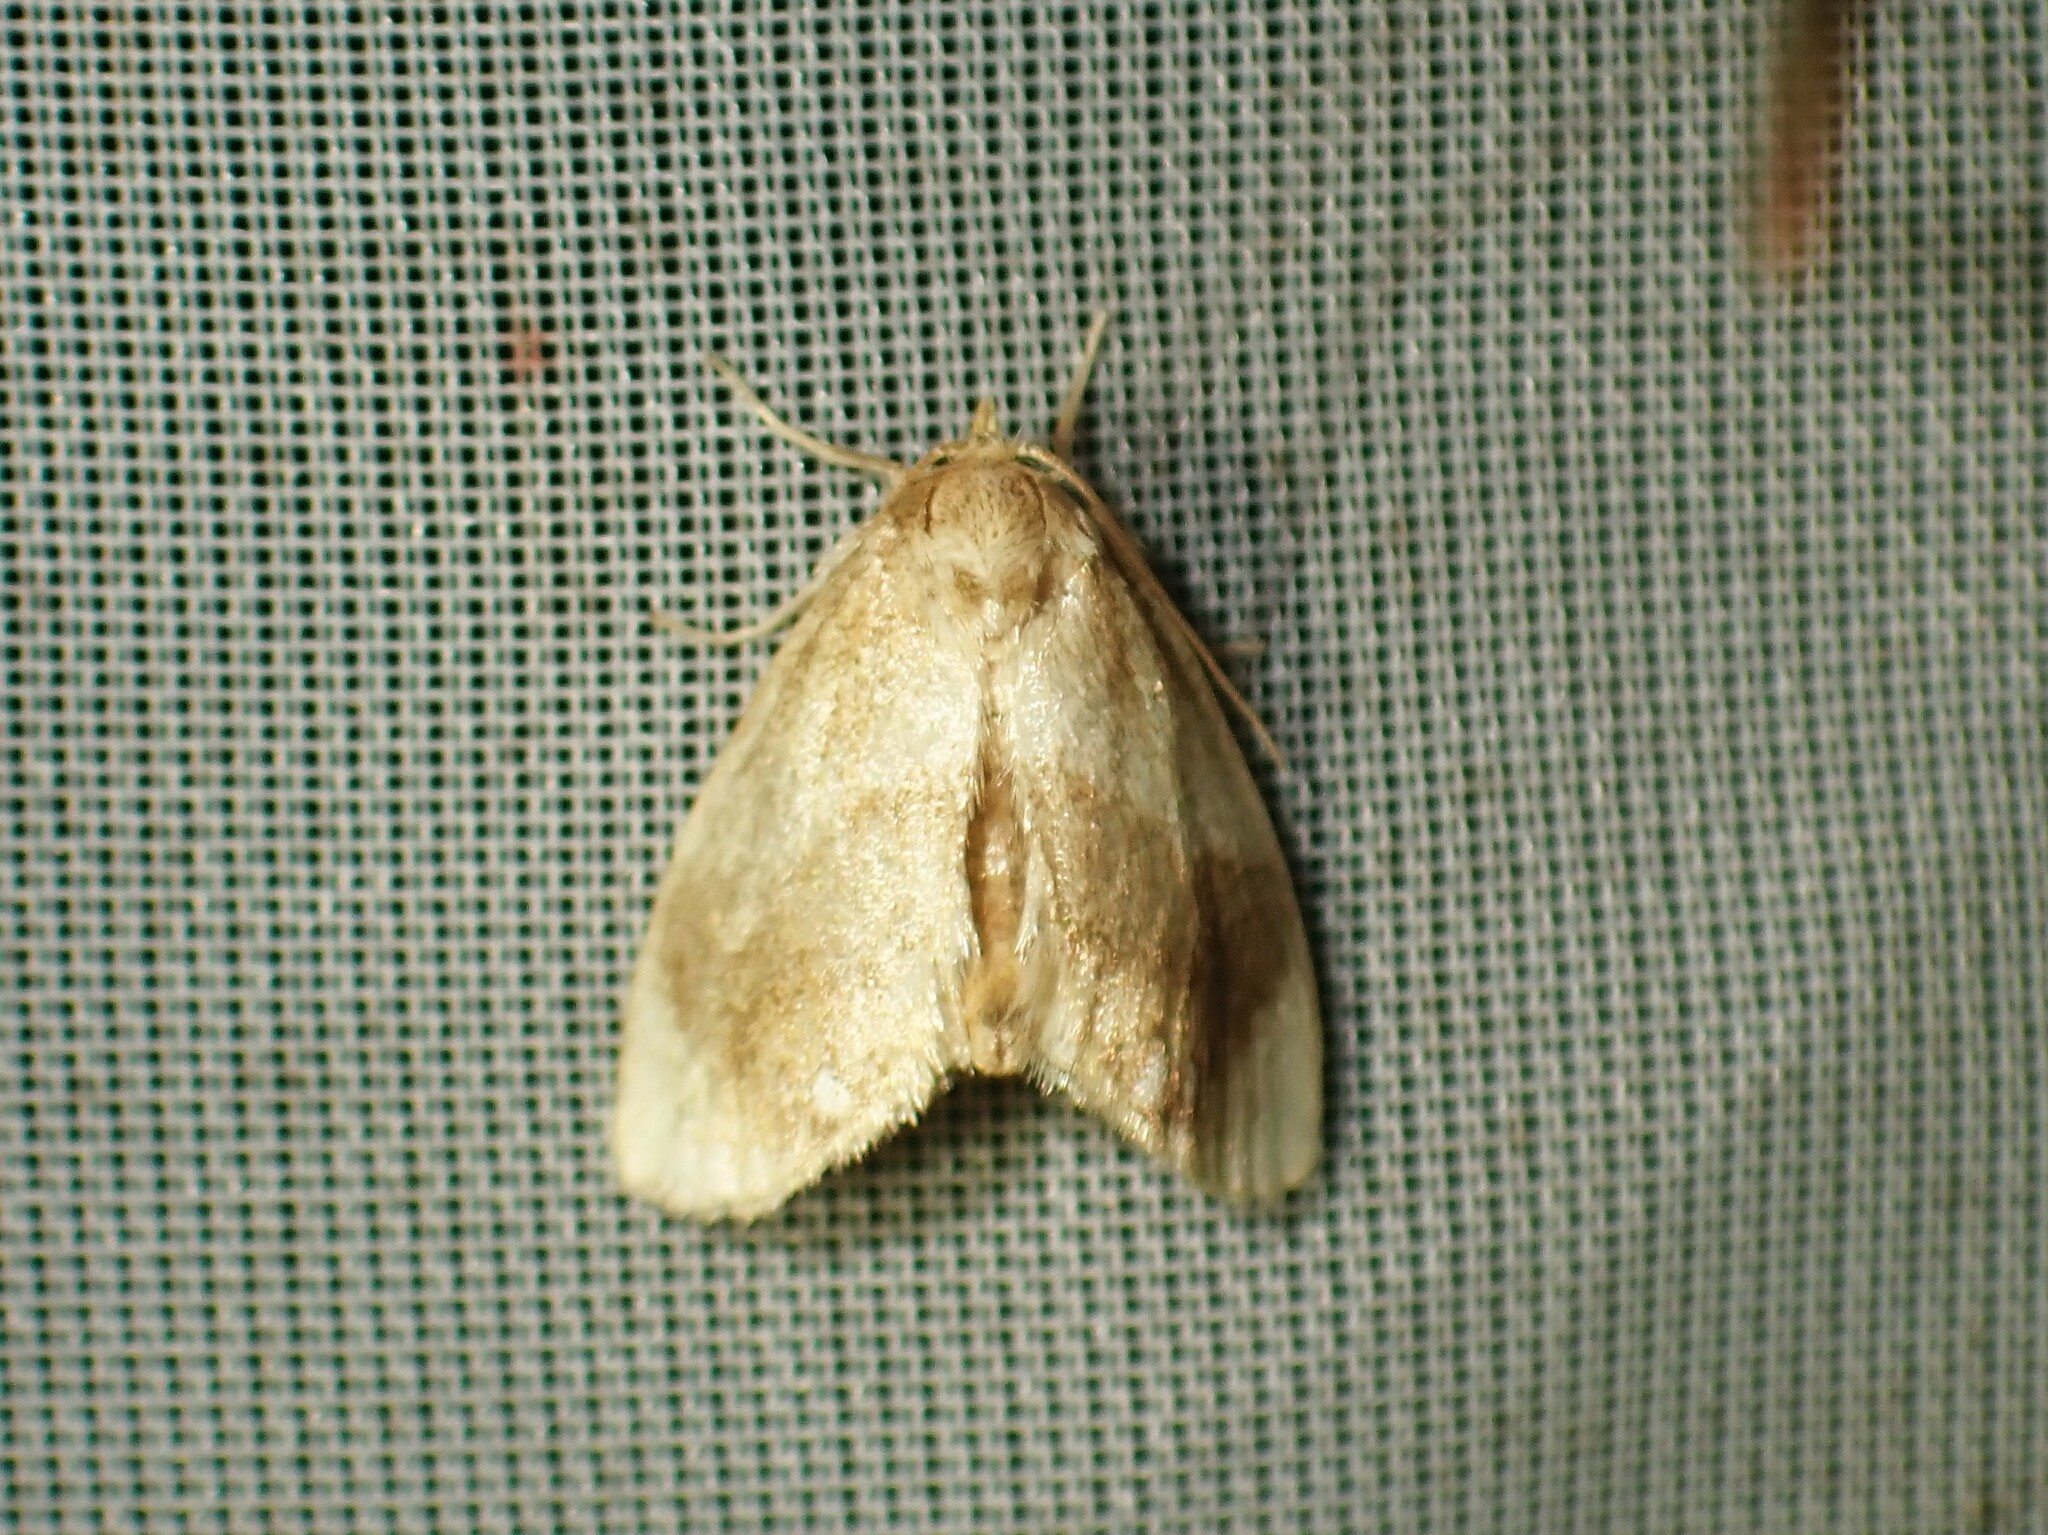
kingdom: Animalia
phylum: Arthropoda
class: Insecta
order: Lepidoptera
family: Limacodidae
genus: Packardia
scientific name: Packardia geminata
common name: Jeweled tailed slug moth
